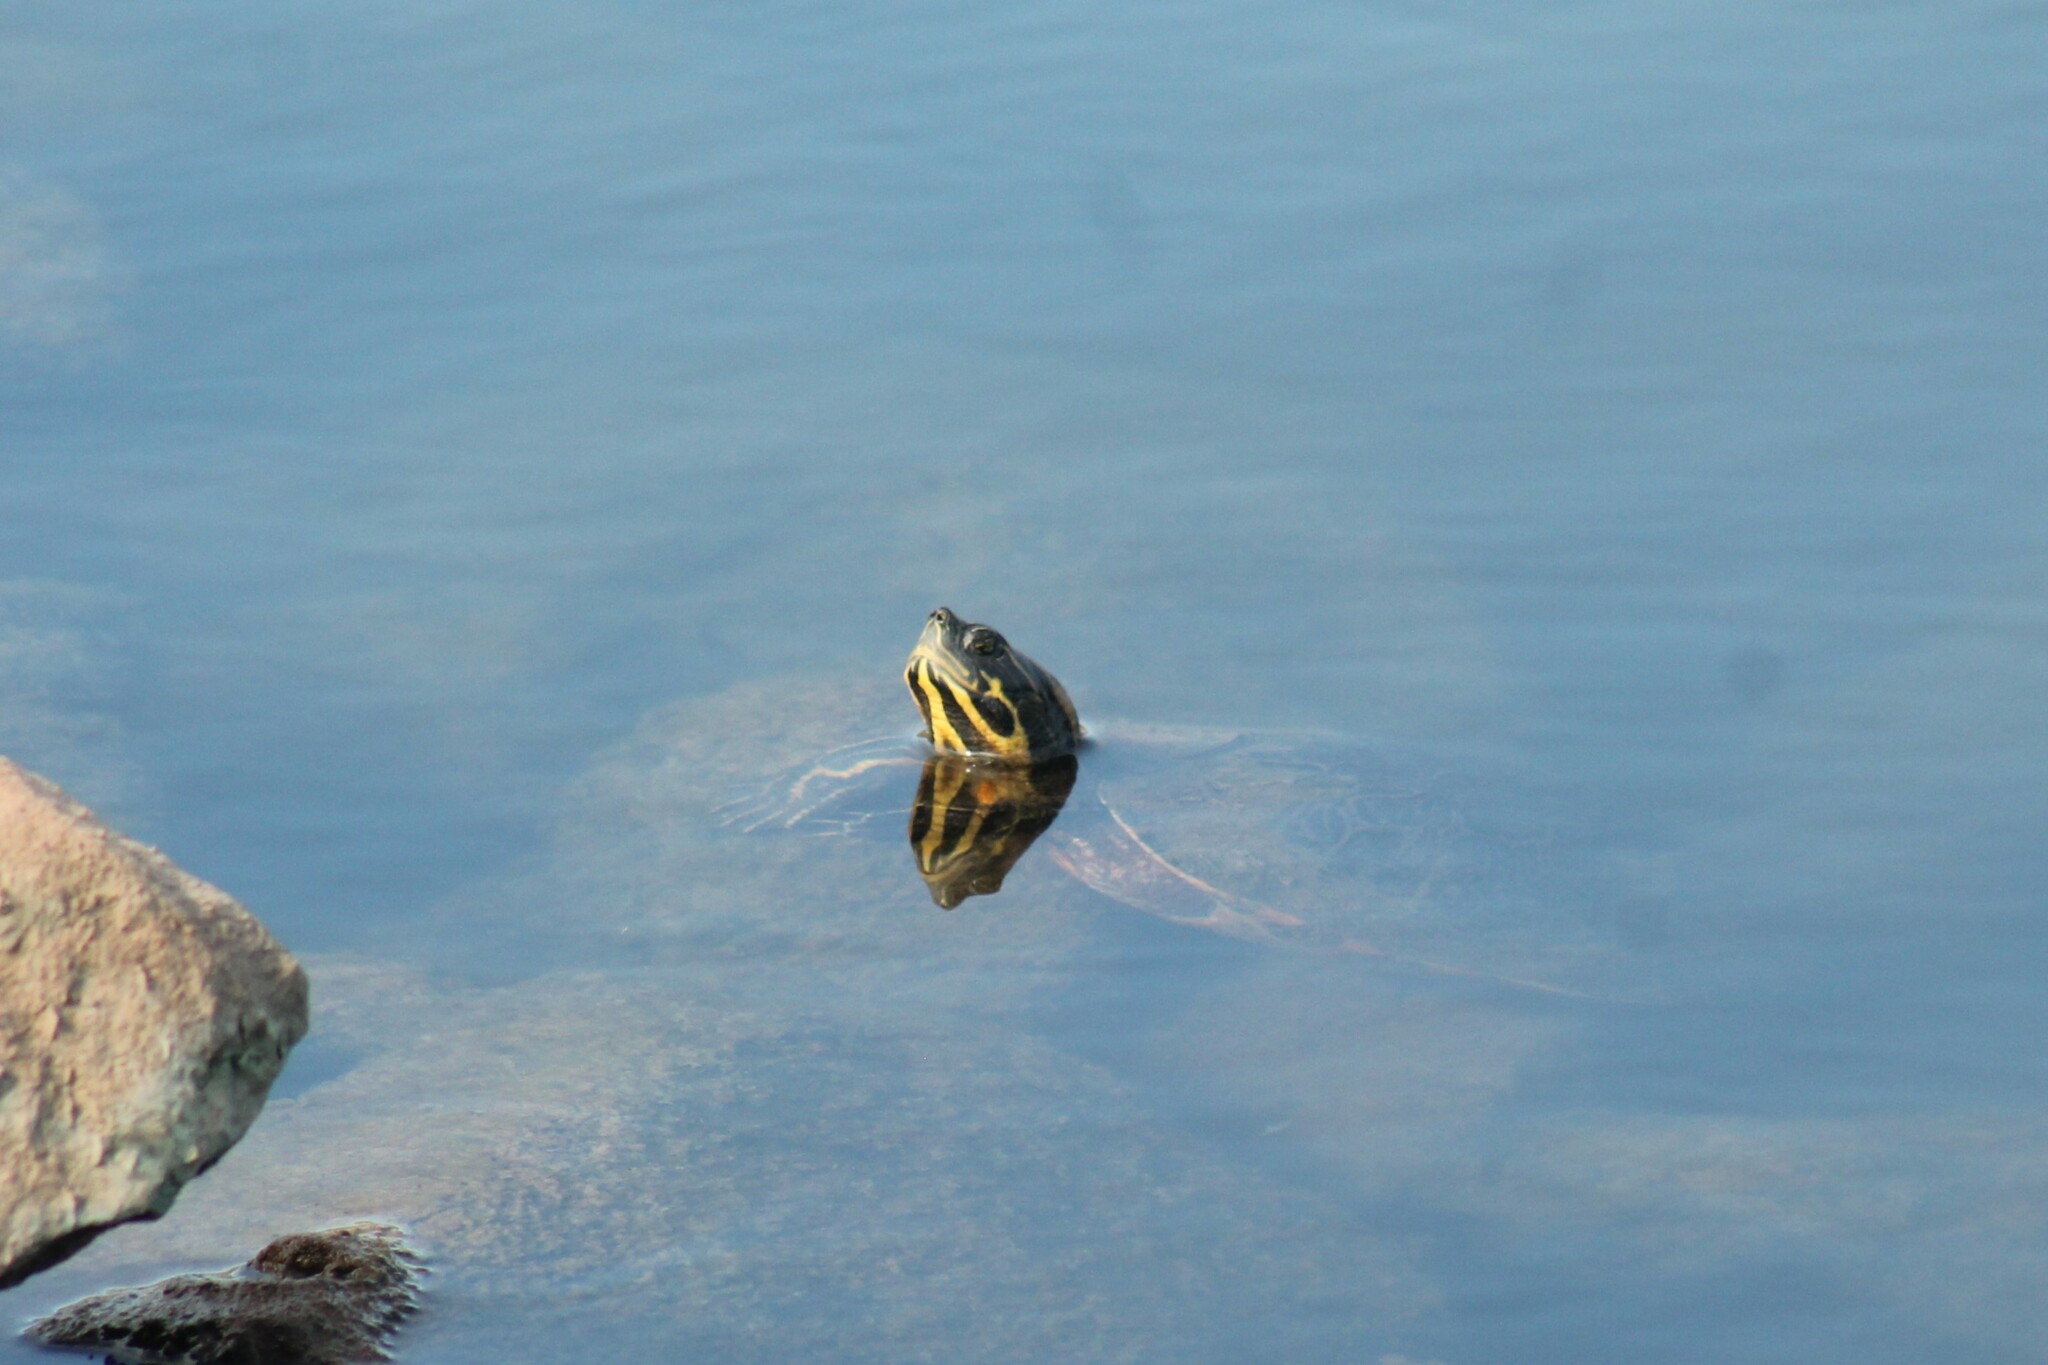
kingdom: Animalia
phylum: Chordata
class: Testudines
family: Emydidae
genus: Pseudemys
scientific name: Pseudemys concinna
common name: Eastern river cooter
